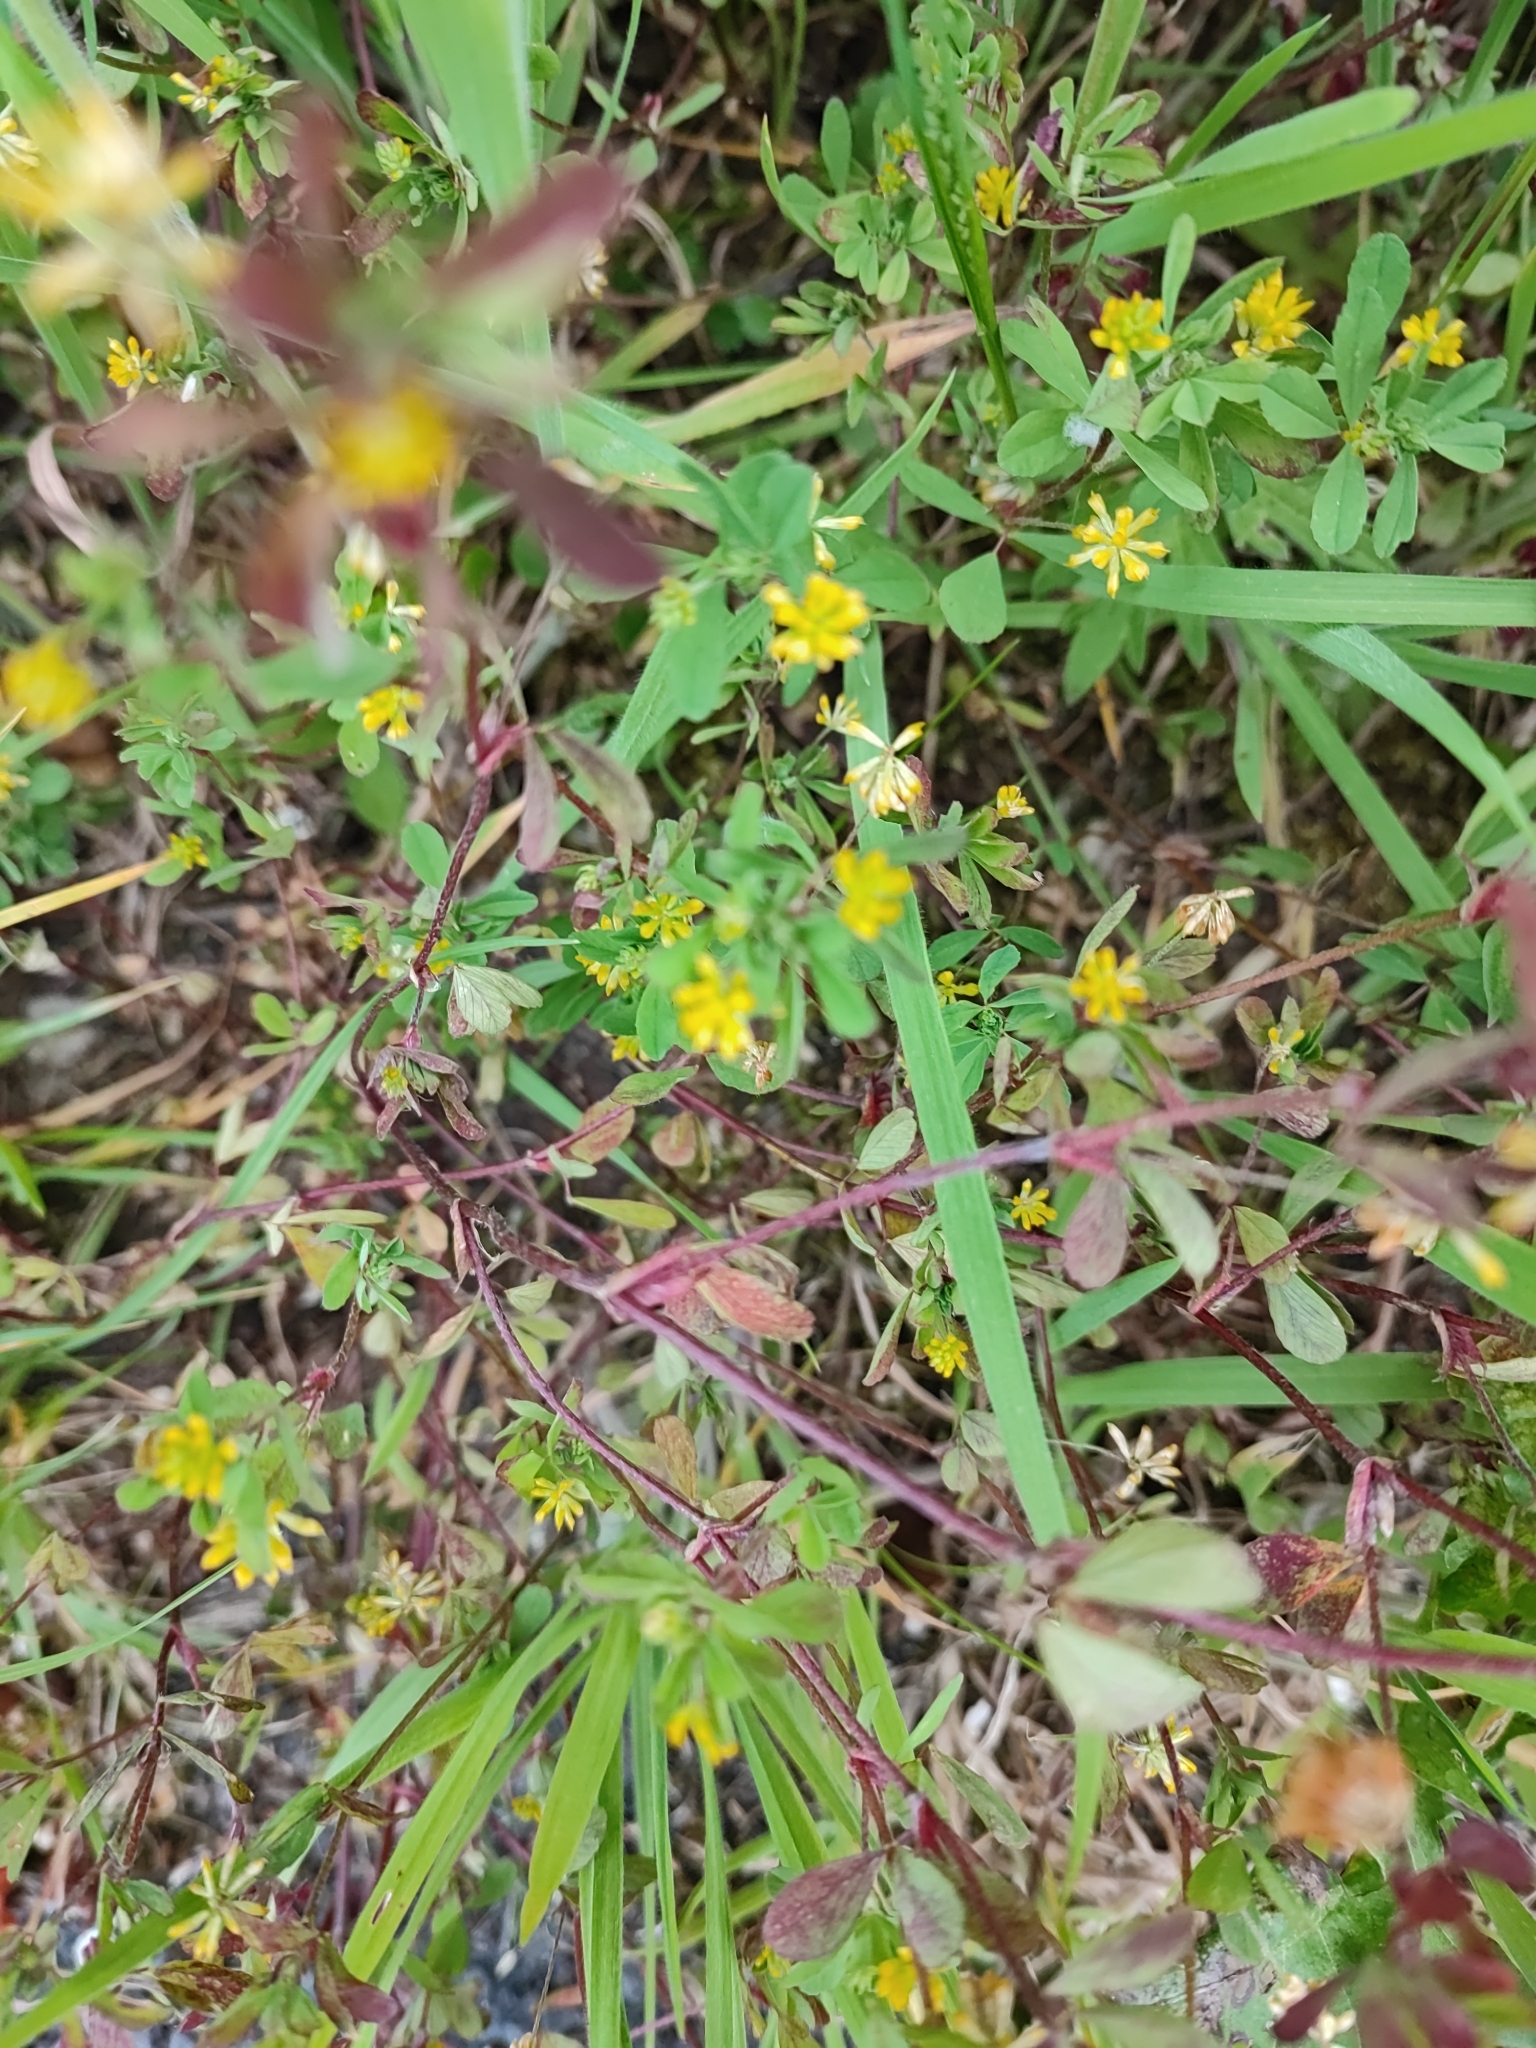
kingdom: Plantae
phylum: Tracheophyta
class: Magnoliopsida
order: Fabales
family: Fabaceae
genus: Trifolium
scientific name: Trifolium dubium
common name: Suckling clover
